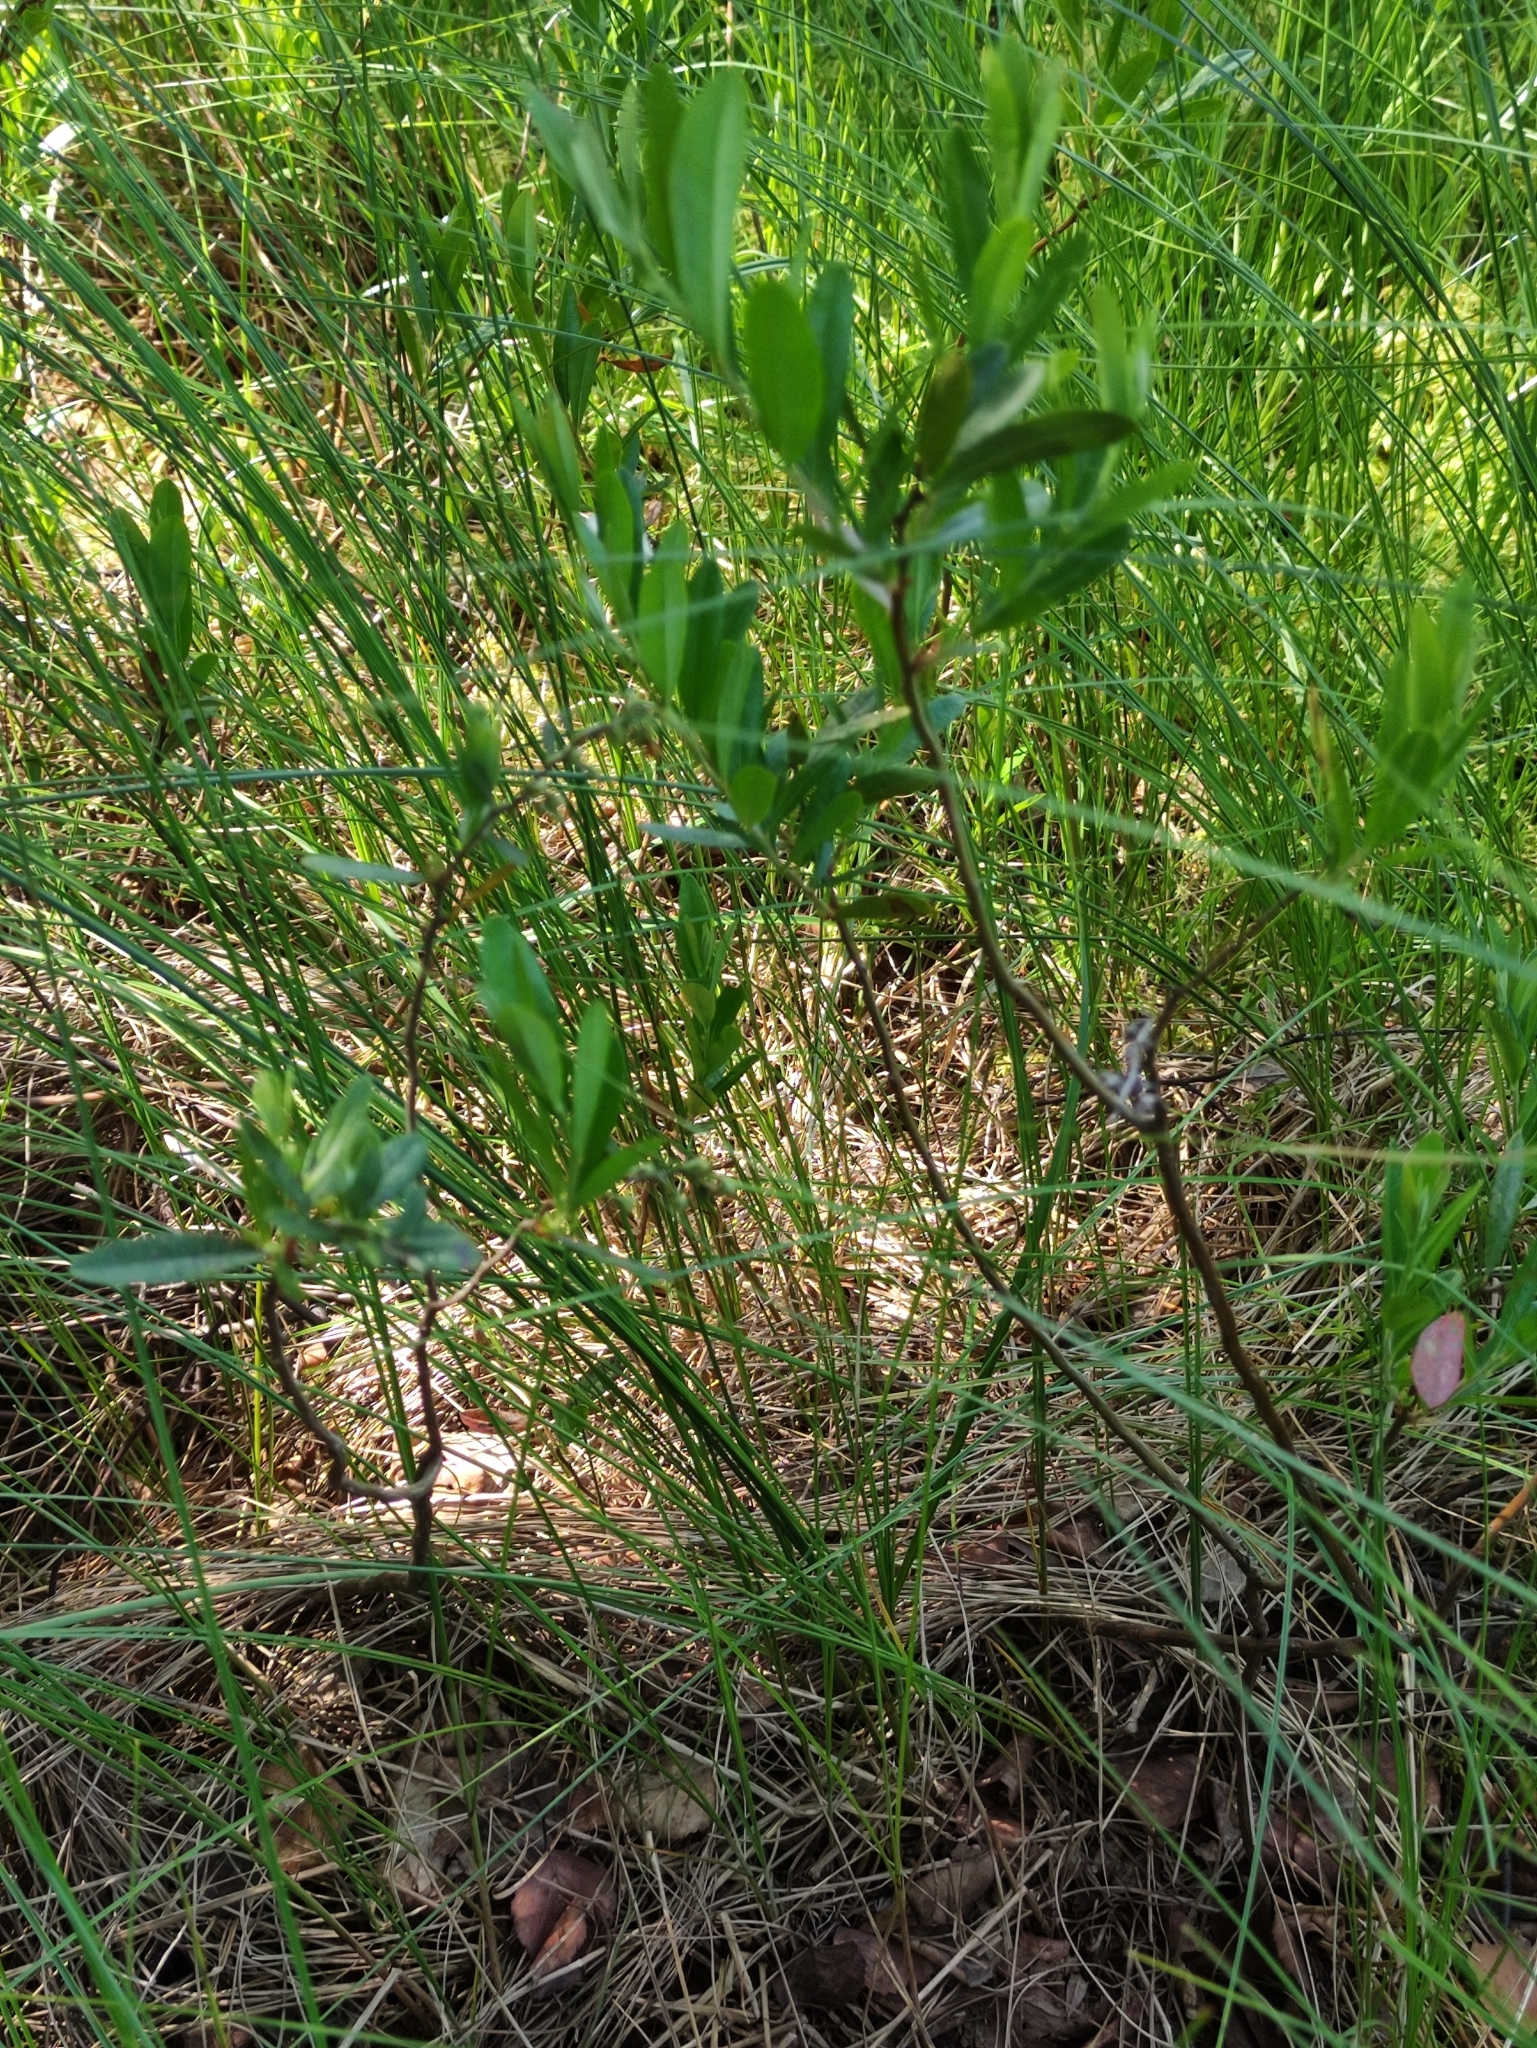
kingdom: Plantae
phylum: Tracheophyta
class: Magnoliopsida
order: Ericales
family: Ericaceae
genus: Chamaedaphne
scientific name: Chamaedaphne calyculata
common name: Leatherleaf
